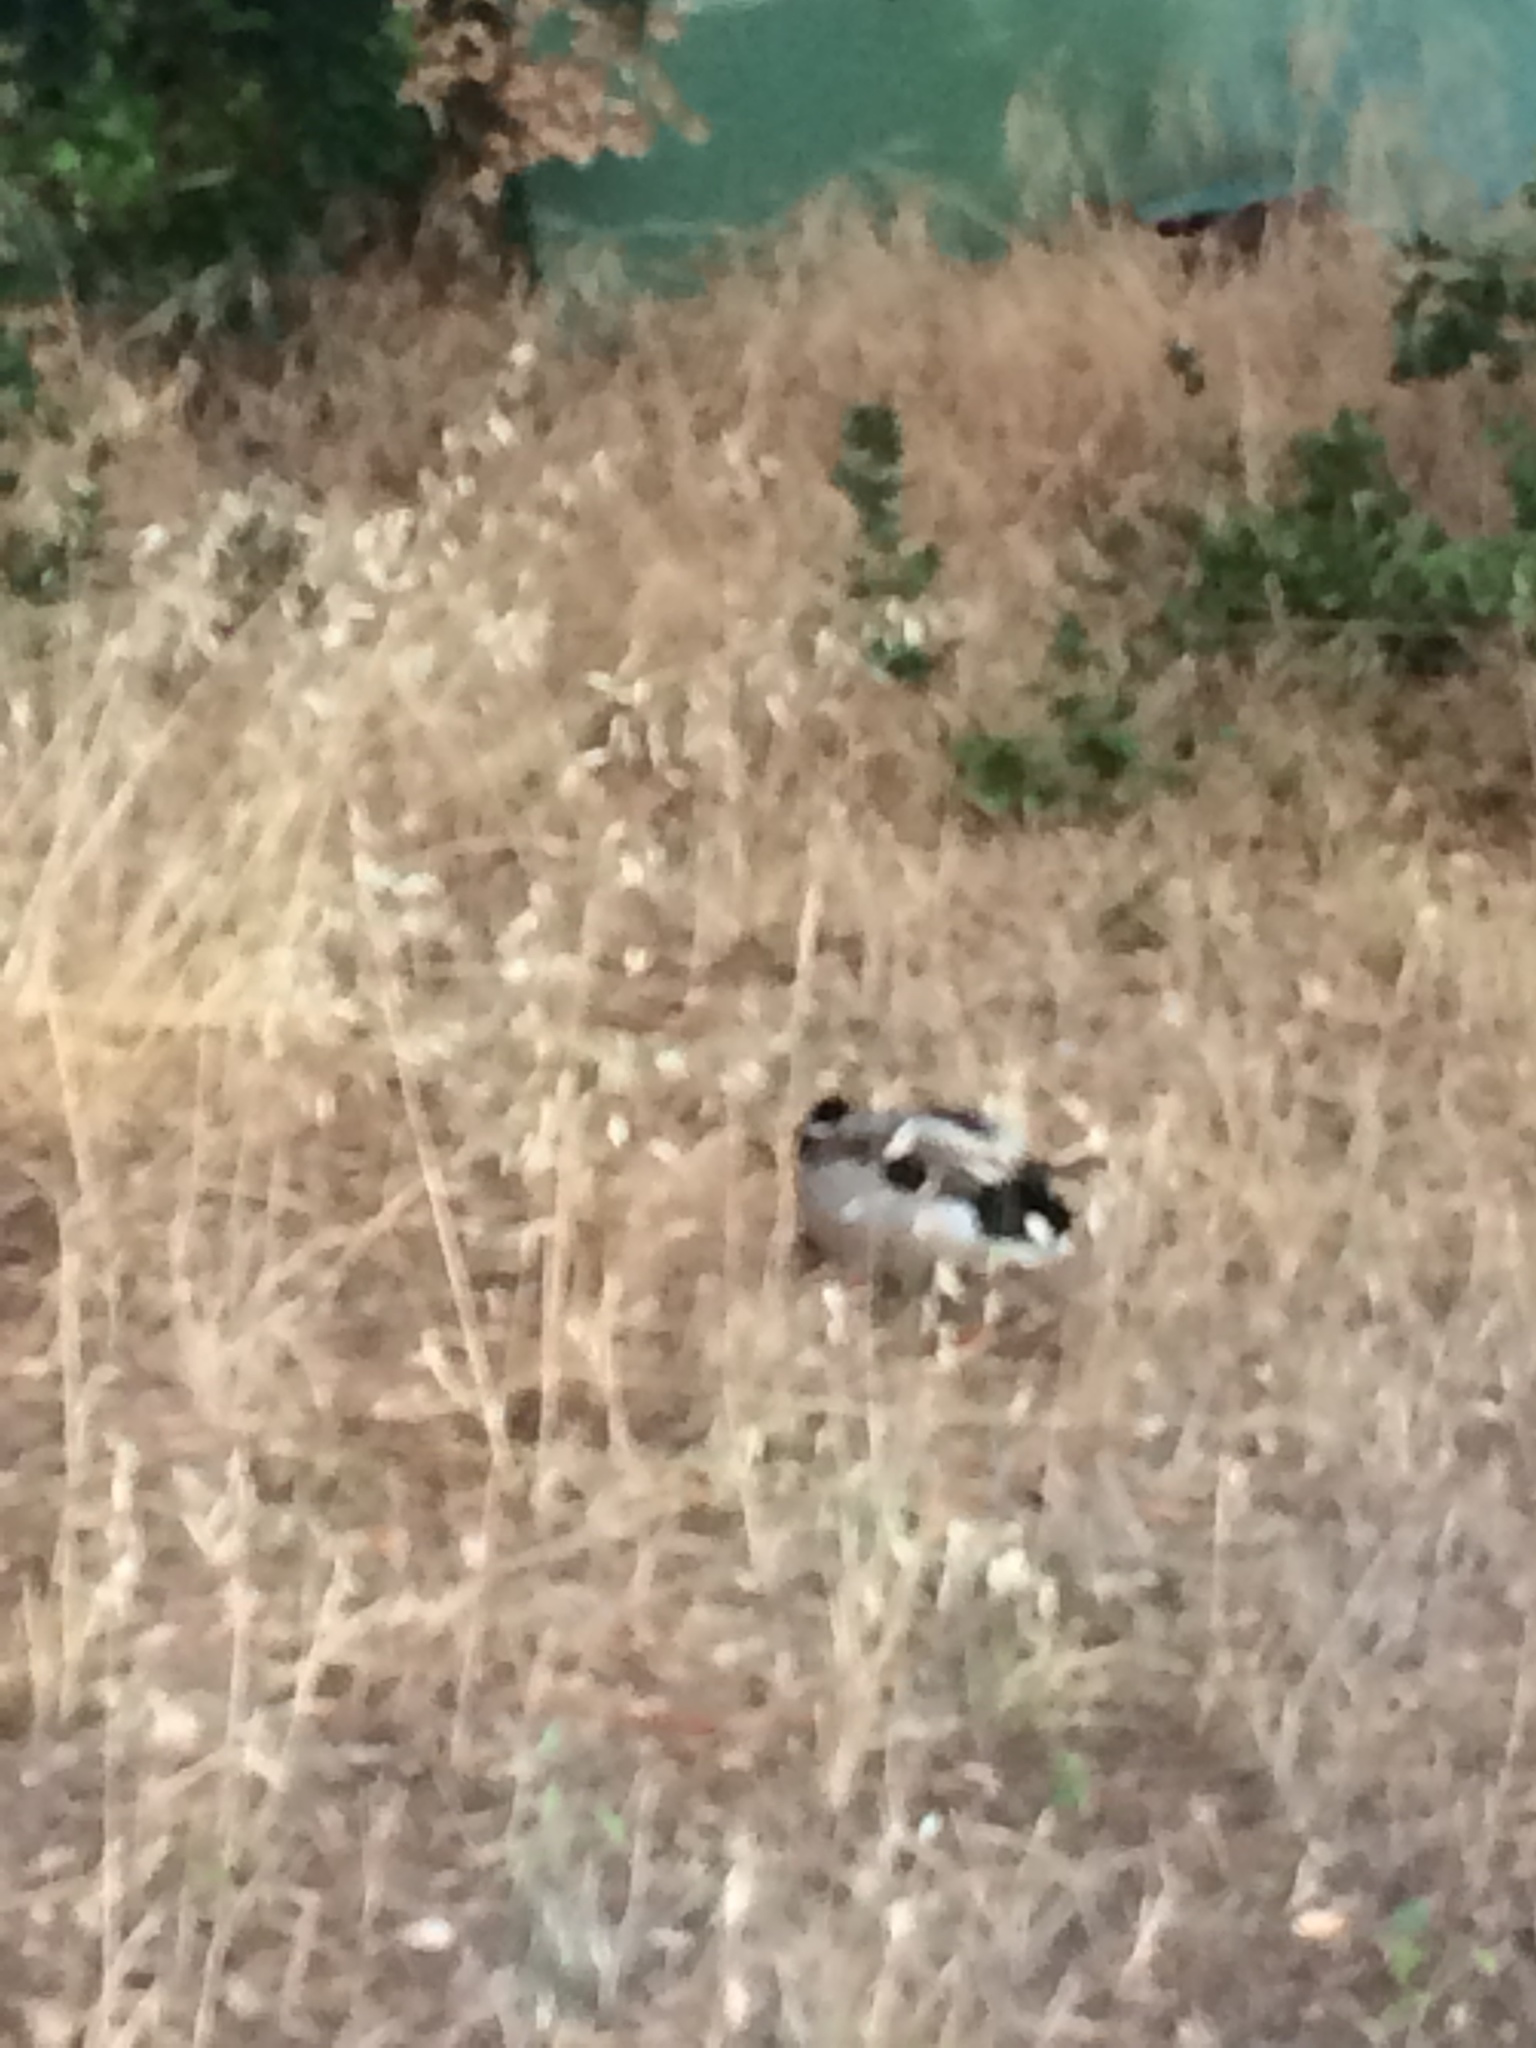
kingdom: Animalia
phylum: Chordata
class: Aves
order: Anseriformes
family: Anatidae
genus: Anas
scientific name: Anas platyrhynchos
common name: Mallard
